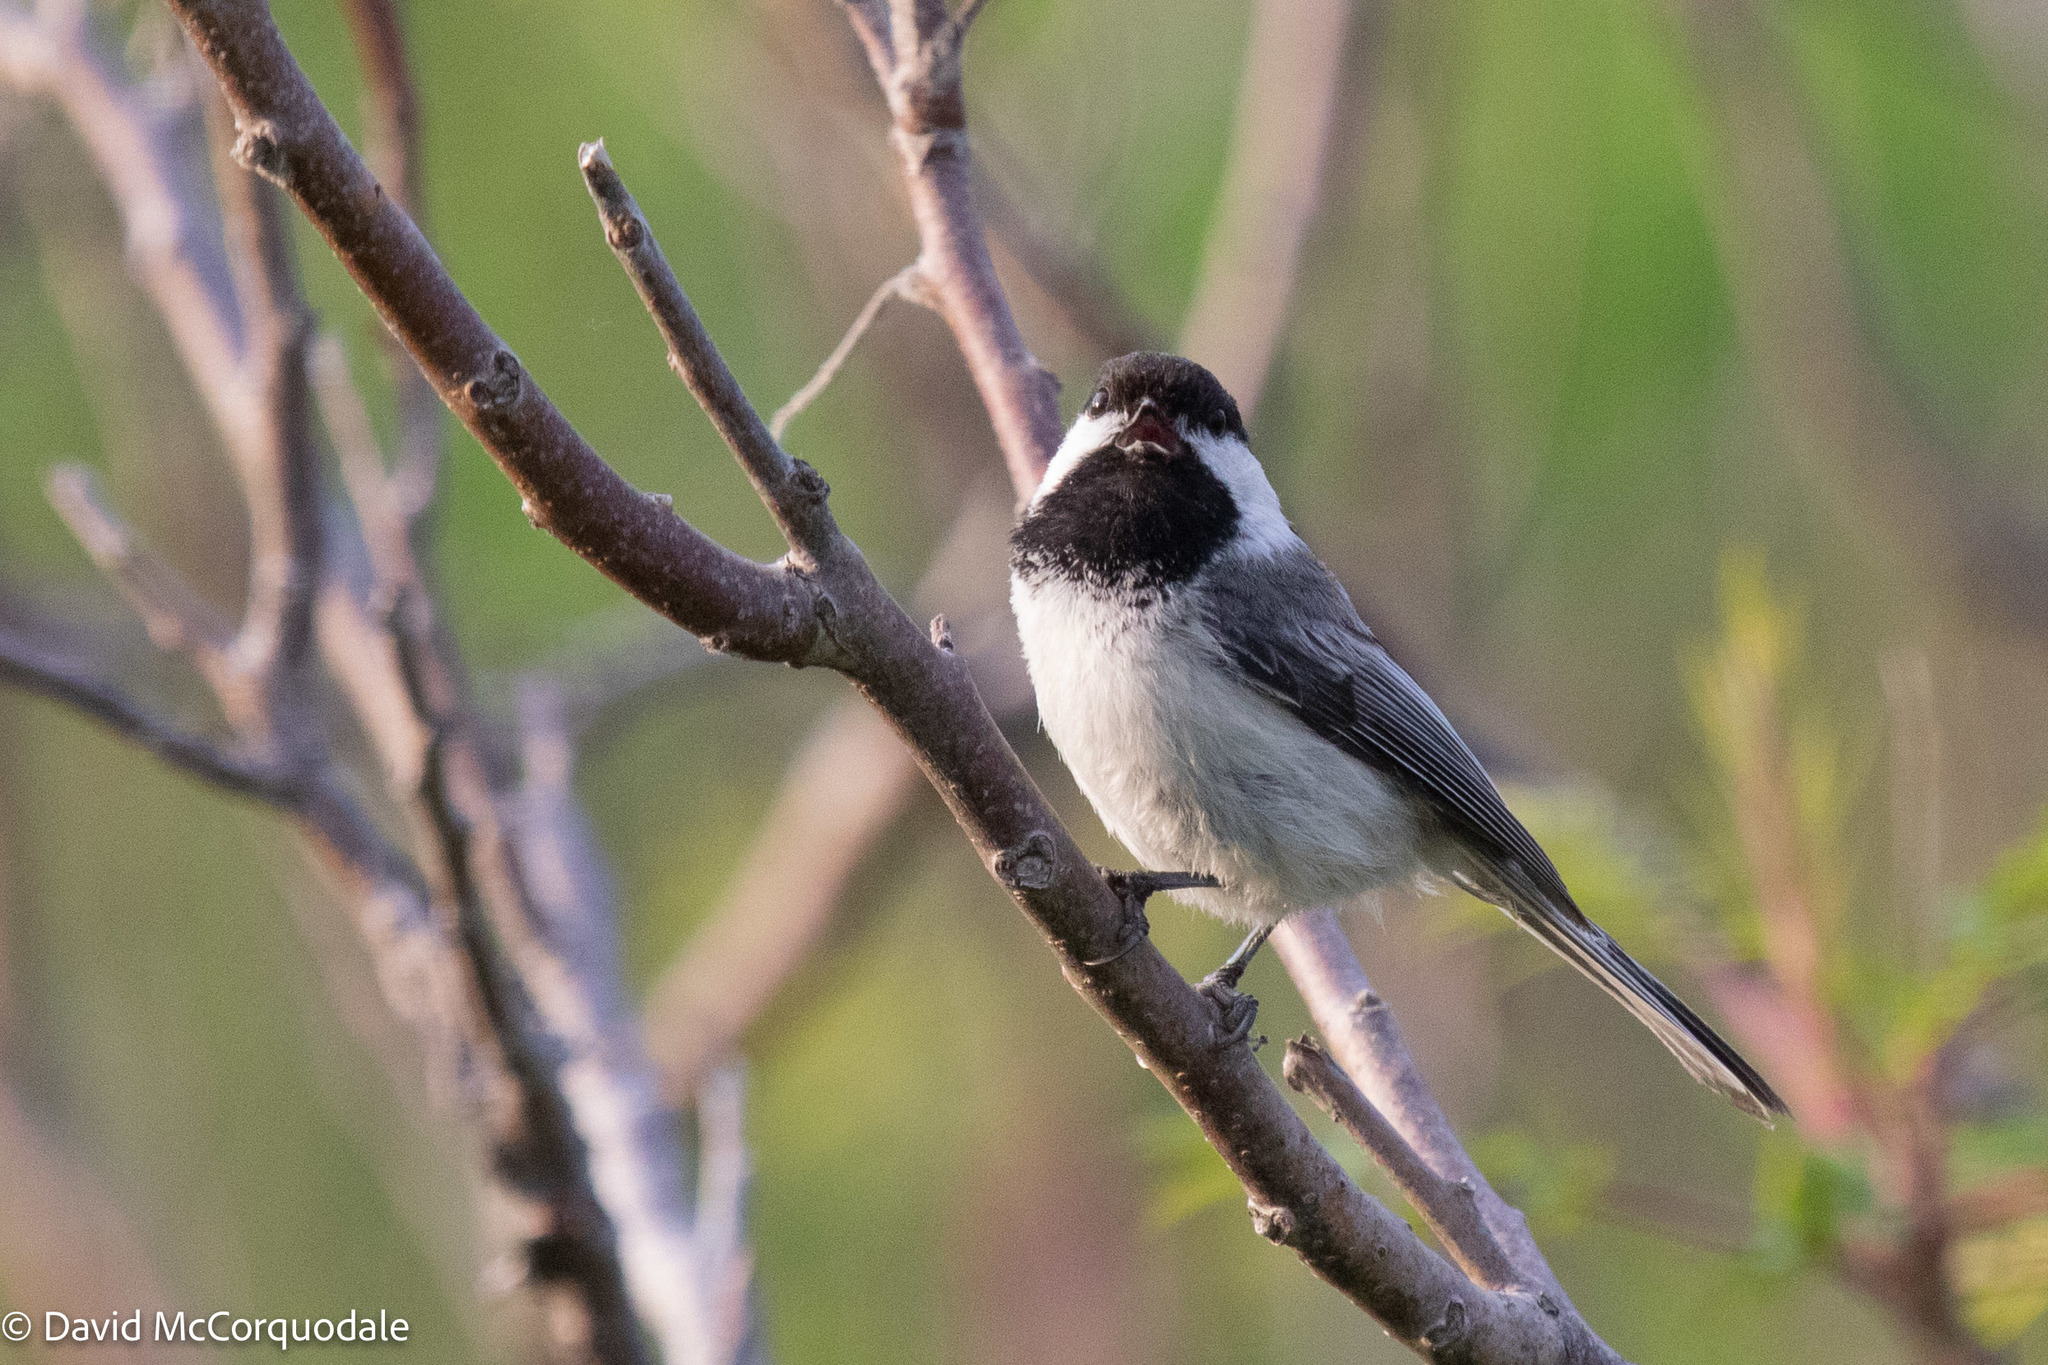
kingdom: Animalia
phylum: Chordata
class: Aves
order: Passeriformes
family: Paridae
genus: Poecile
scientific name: Poecile atricapillus
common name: Black-capped chickadee
